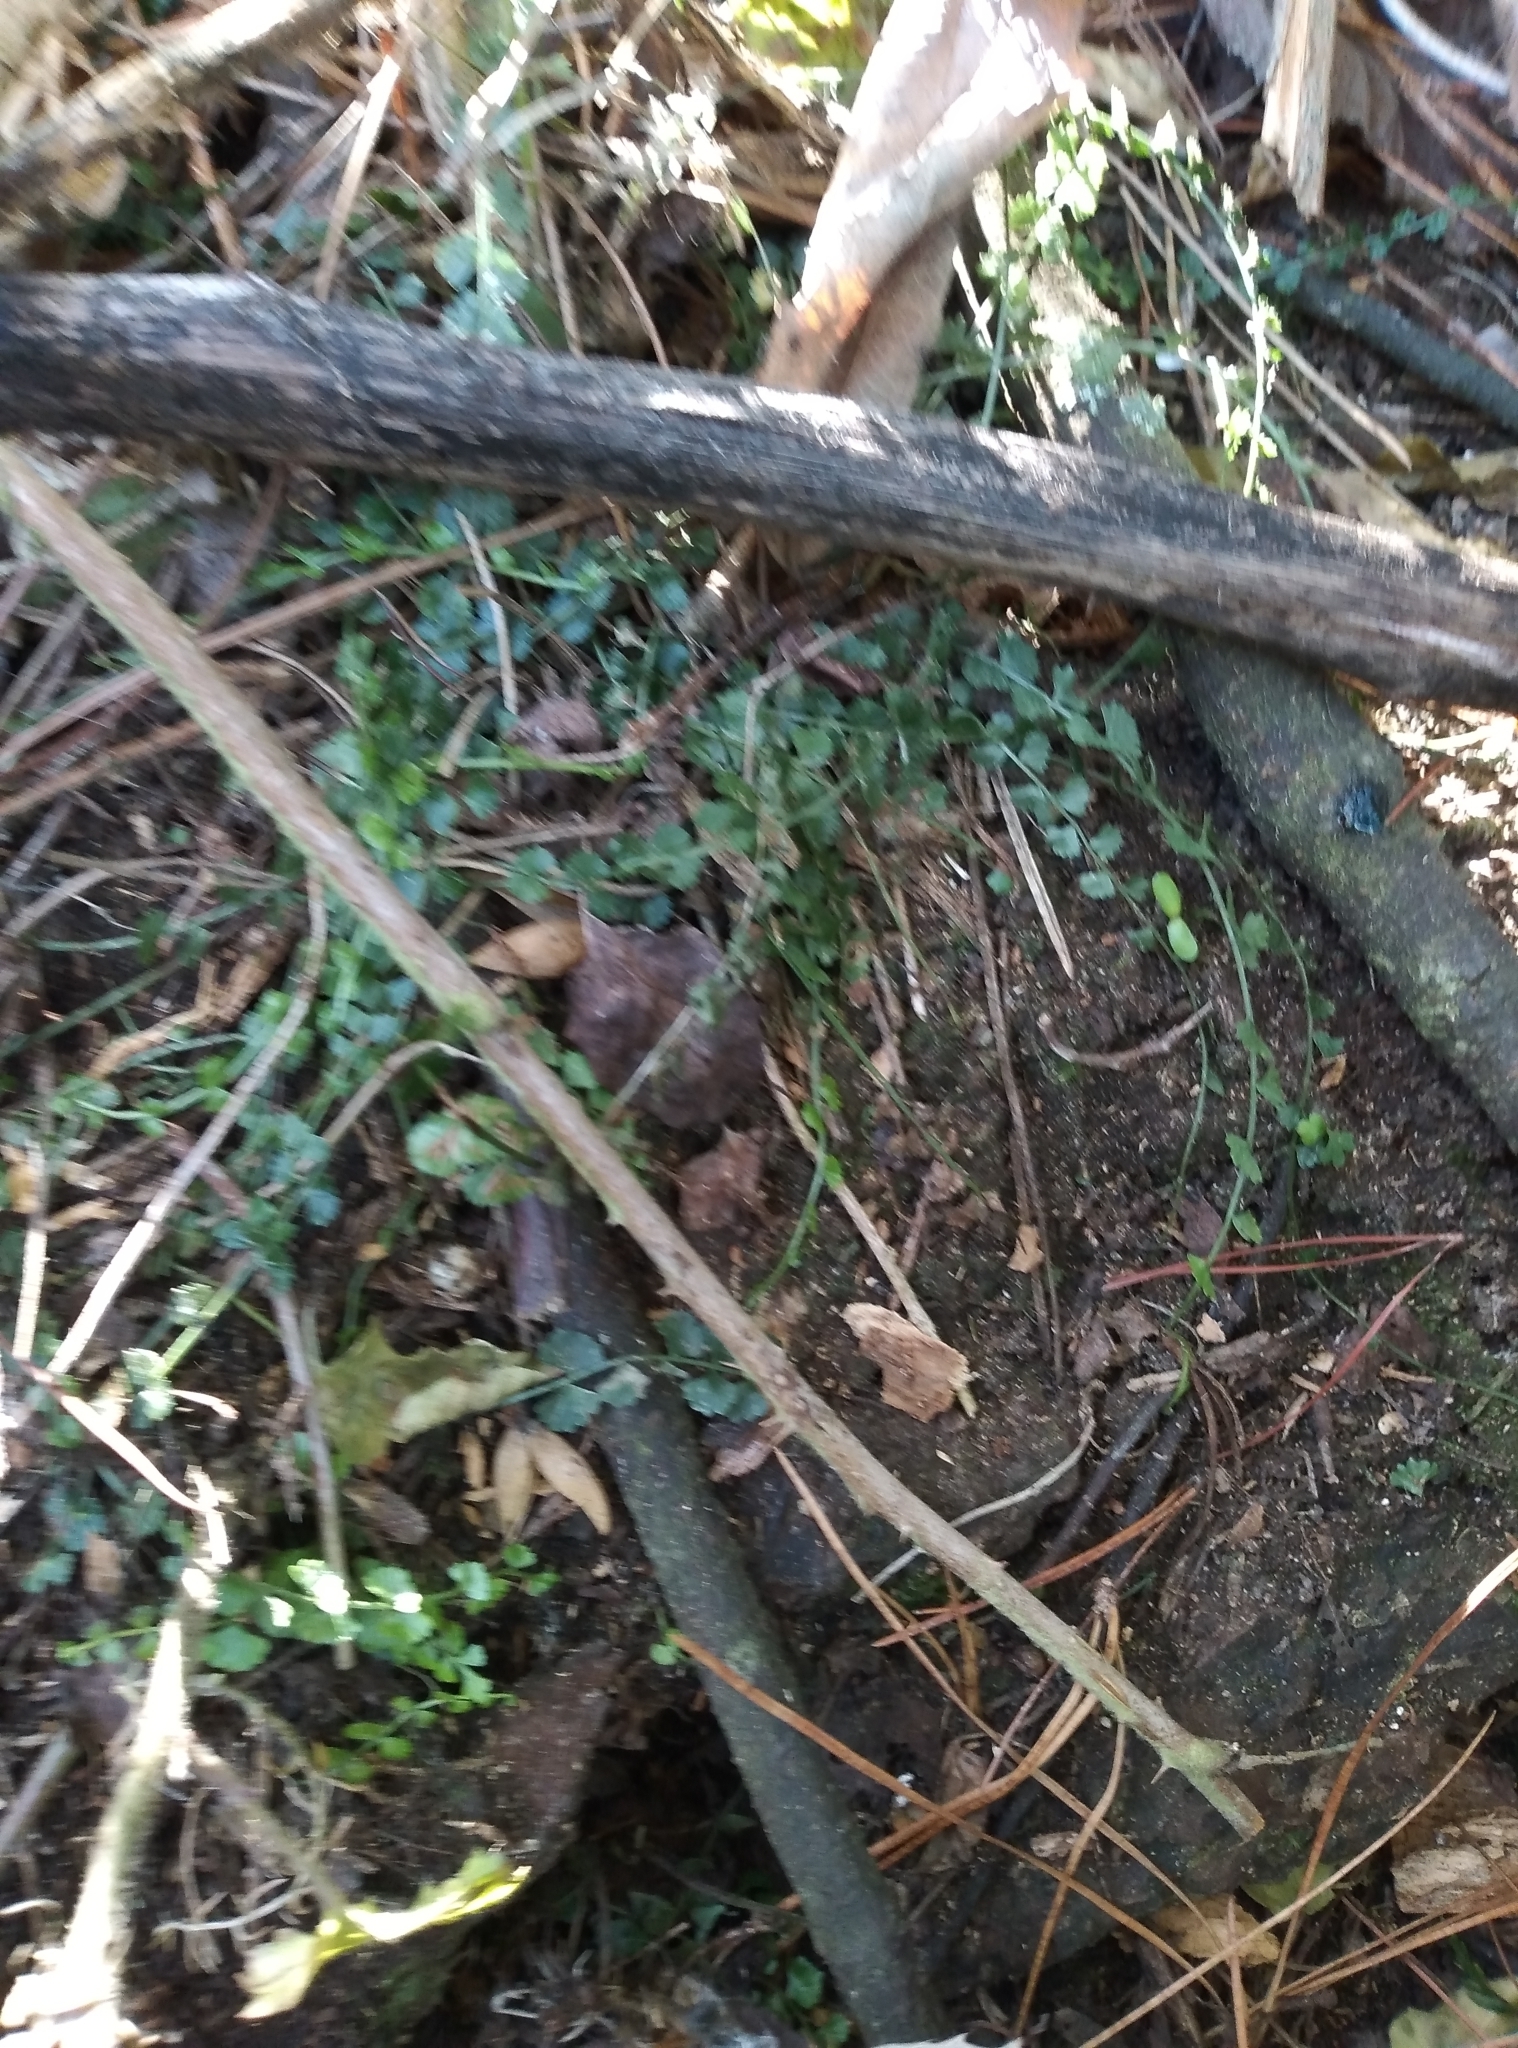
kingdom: Plantae
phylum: Tracheophyta
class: Polypodiopsida
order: Polypodiales
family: Aspleniaceae
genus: Asplenium
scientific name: Asplenium flabellifolium
